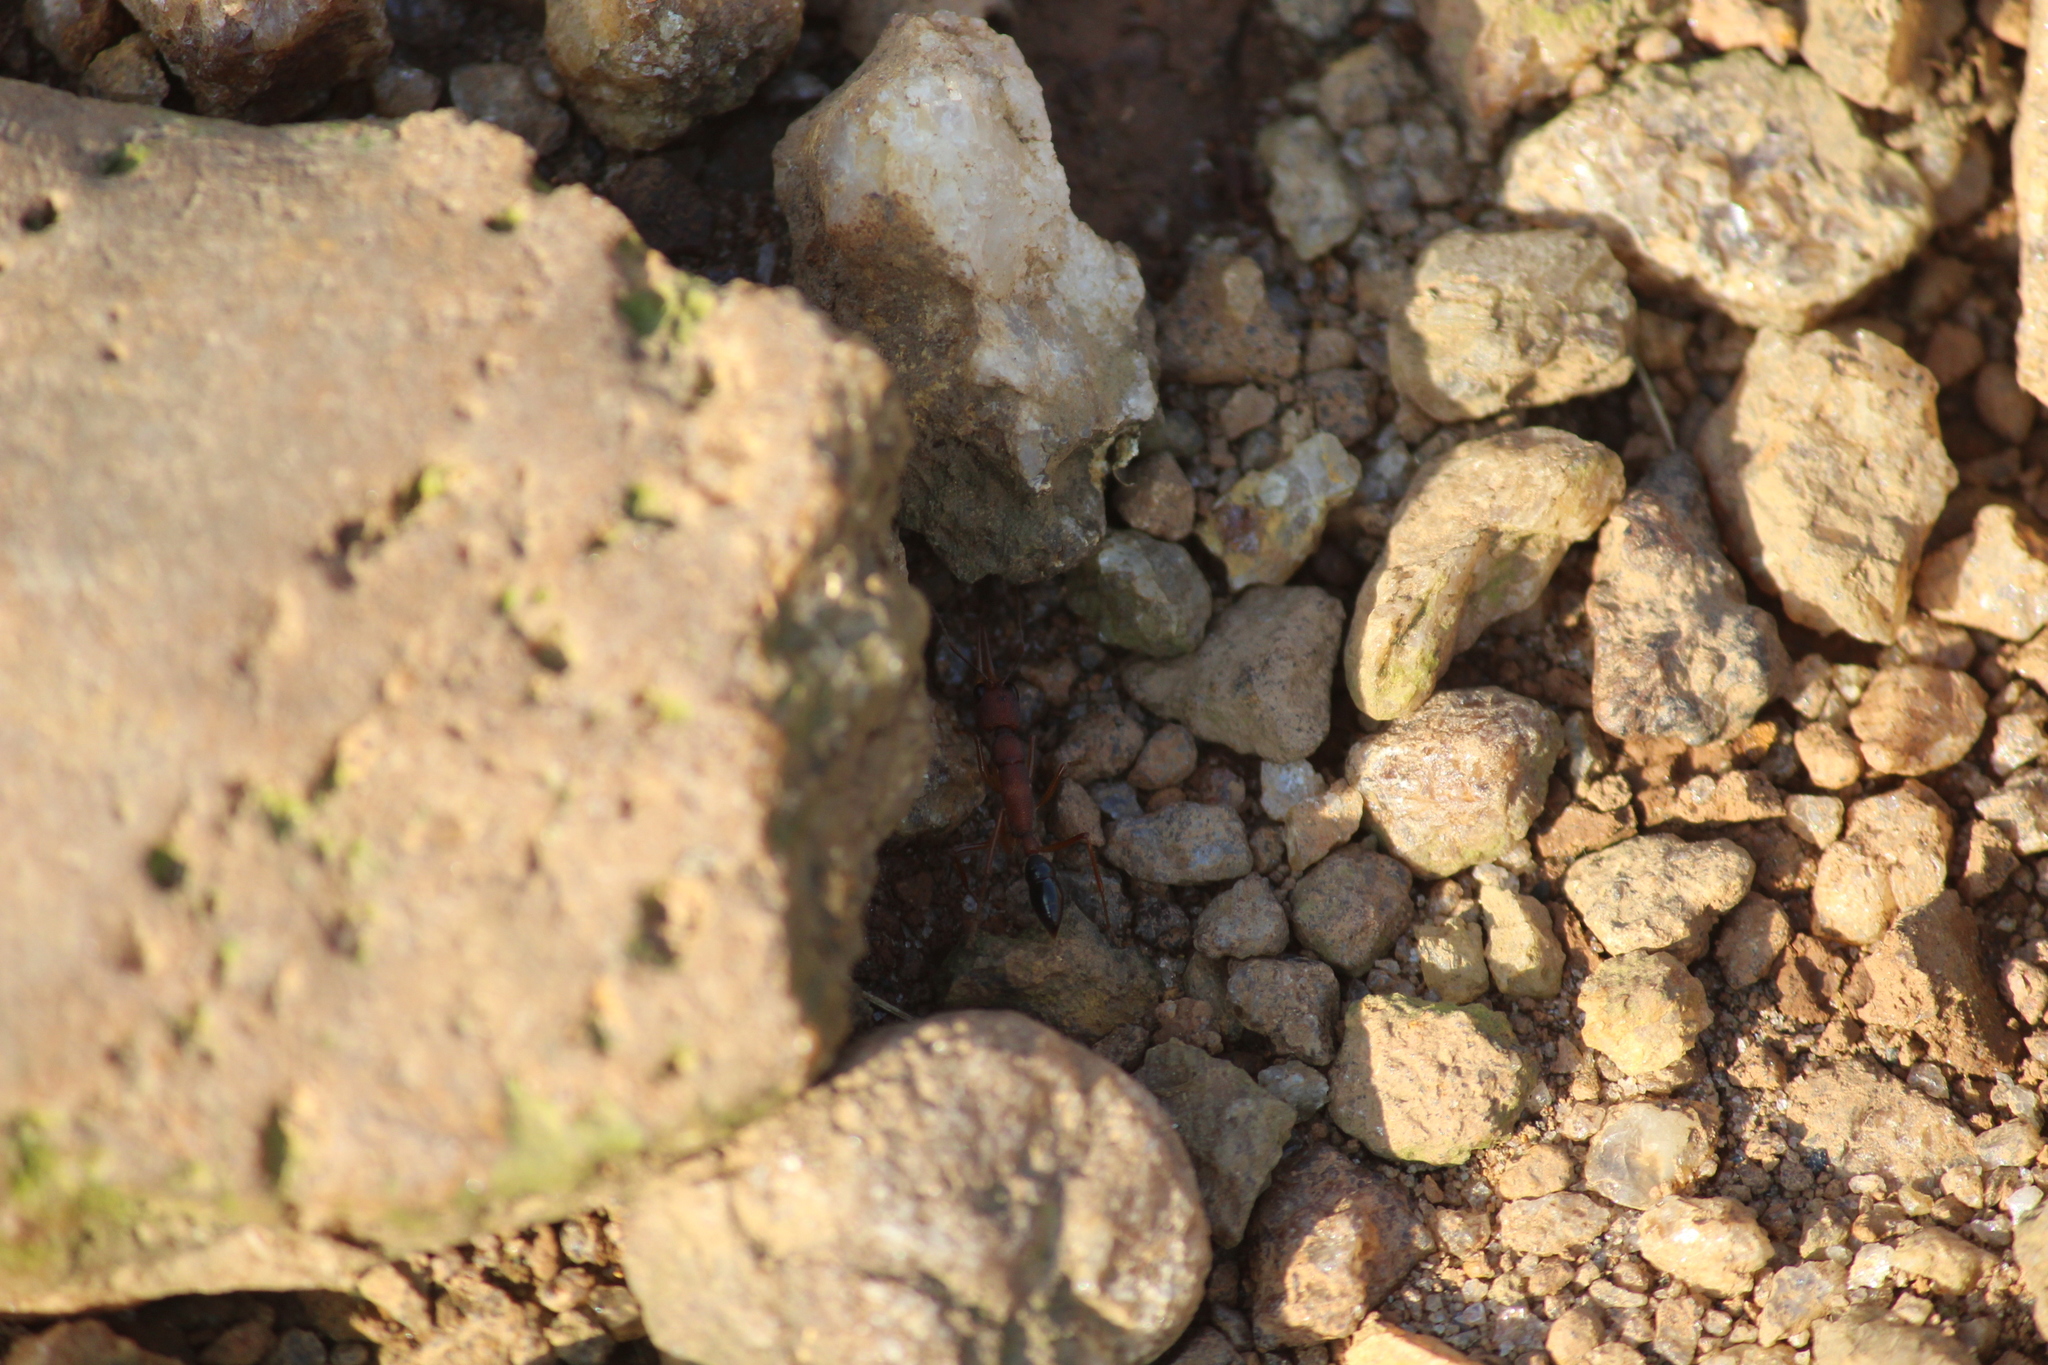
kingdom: Animalia
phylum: Arthropoda
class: Insecta
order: Hymenoptera
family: Formicidae
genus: Harpegnathos
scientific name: Harpegnathos saltator
